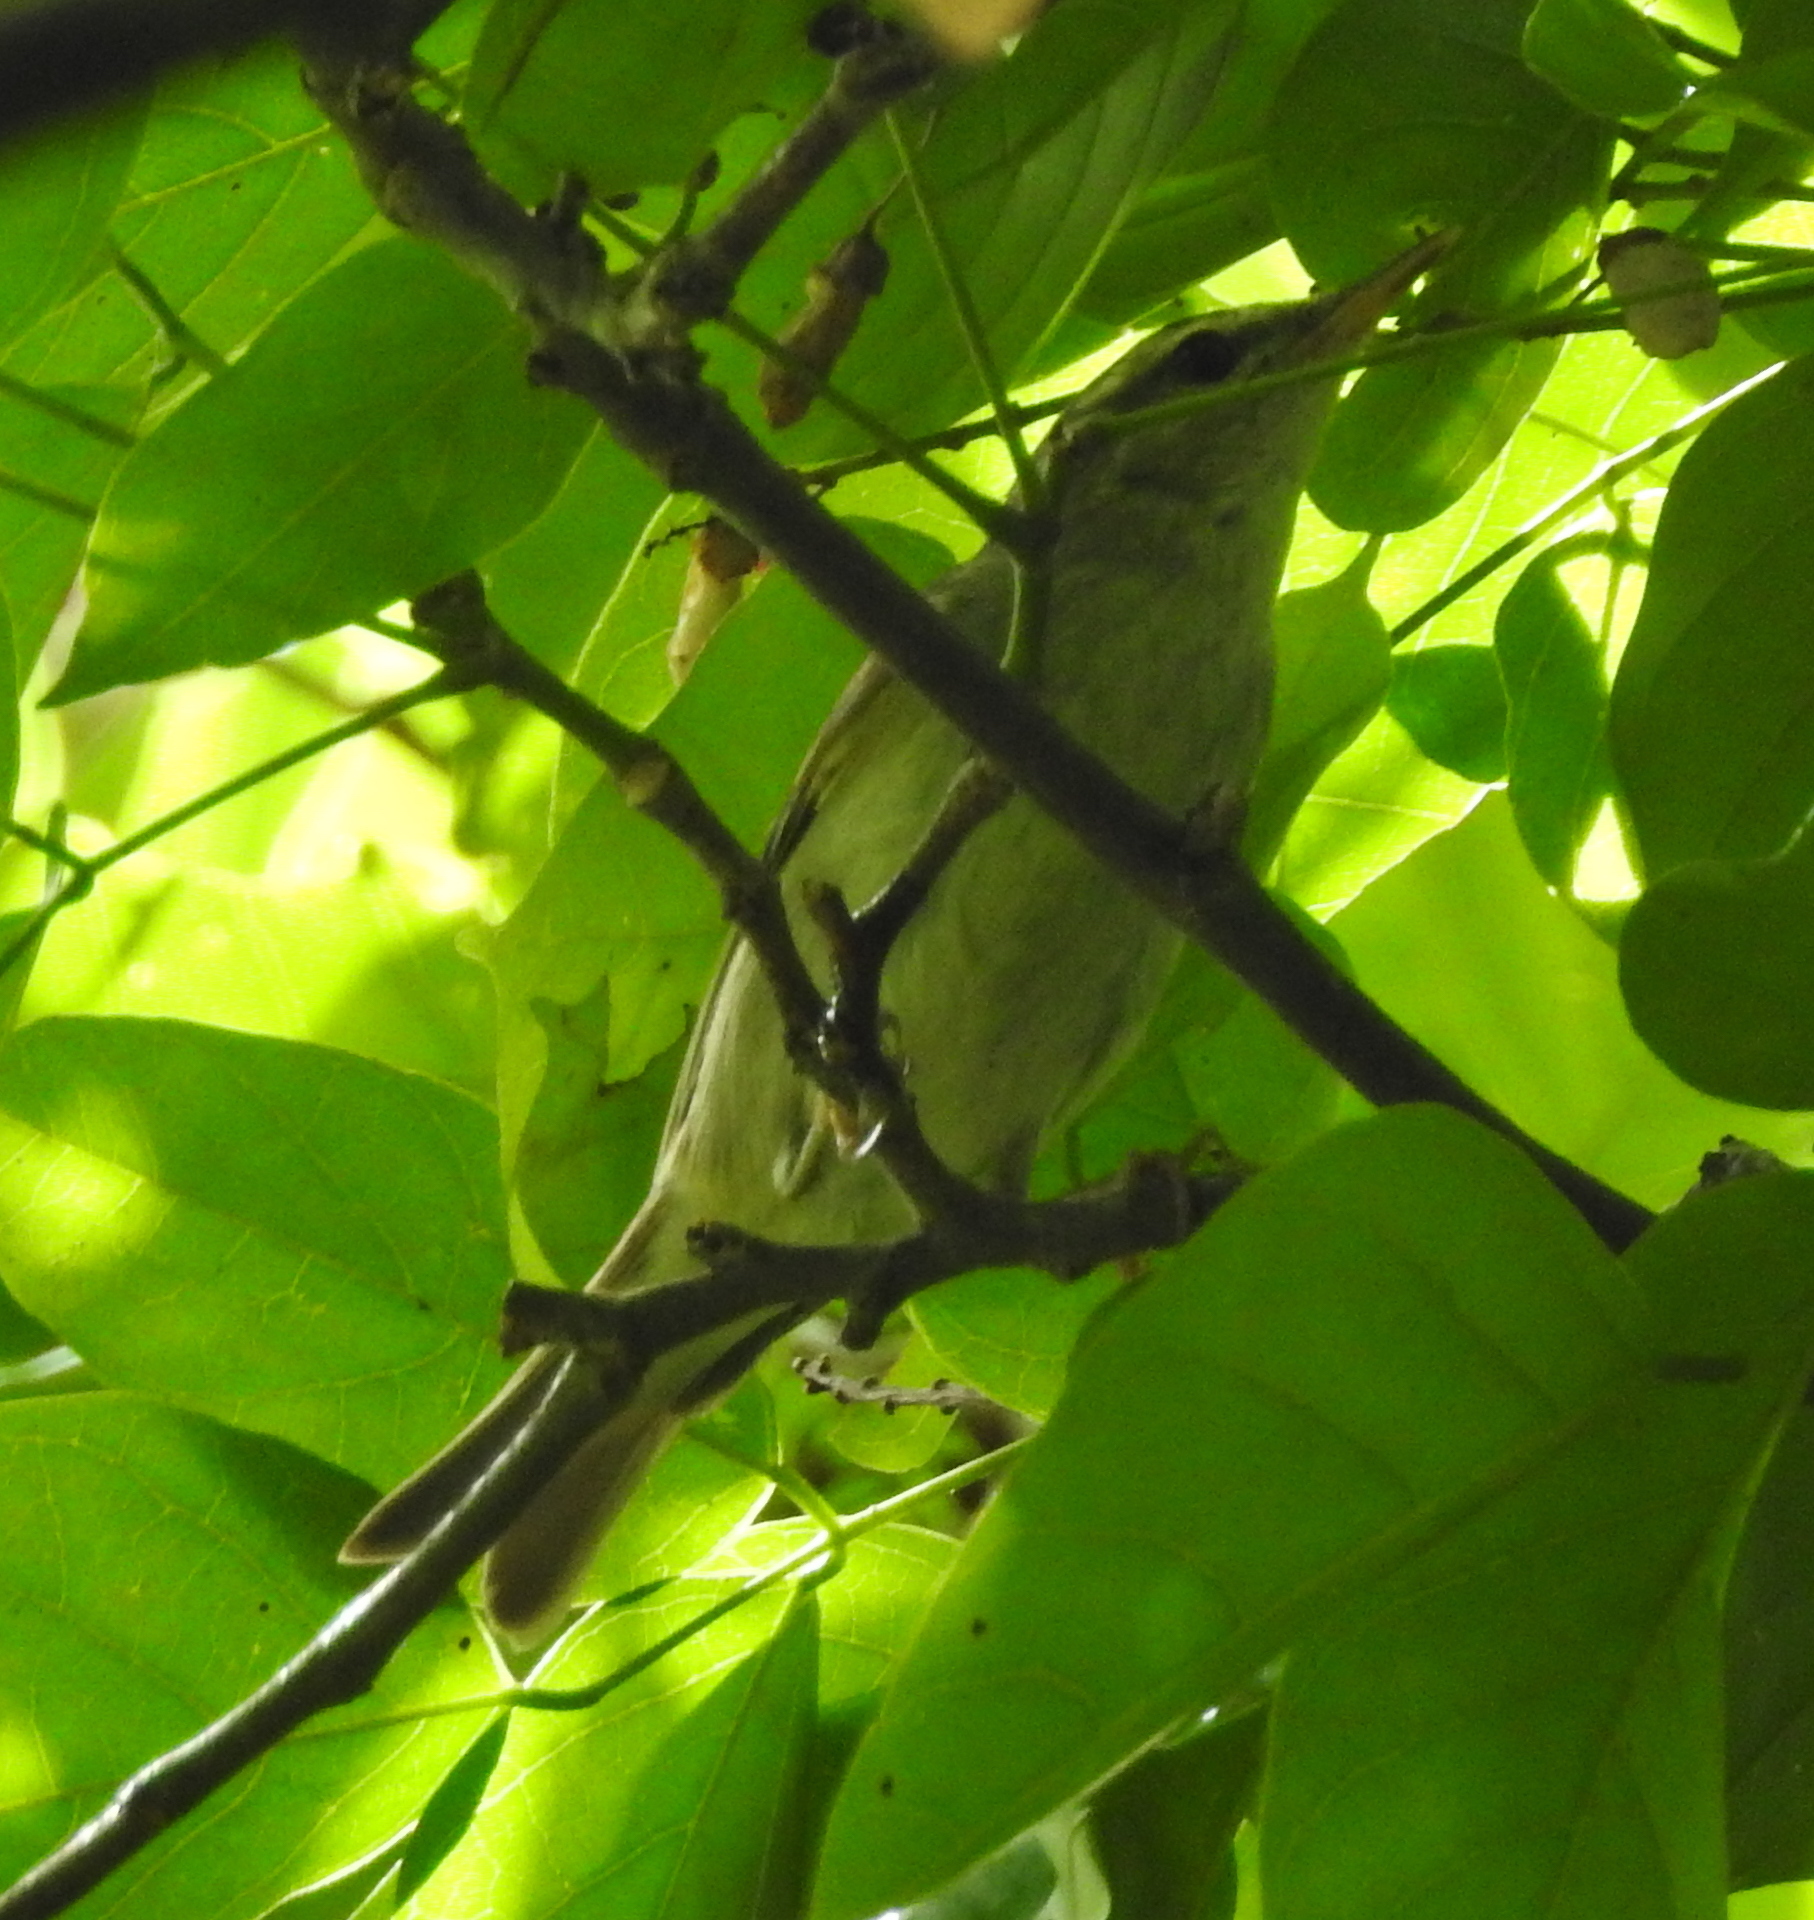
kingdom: Animalia
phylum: Chordata
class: Aves
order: Passeriformes
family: Phylloscopidae
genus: Phylloscopus
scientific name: Phylloscopus borealis
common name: Arctic warbler
